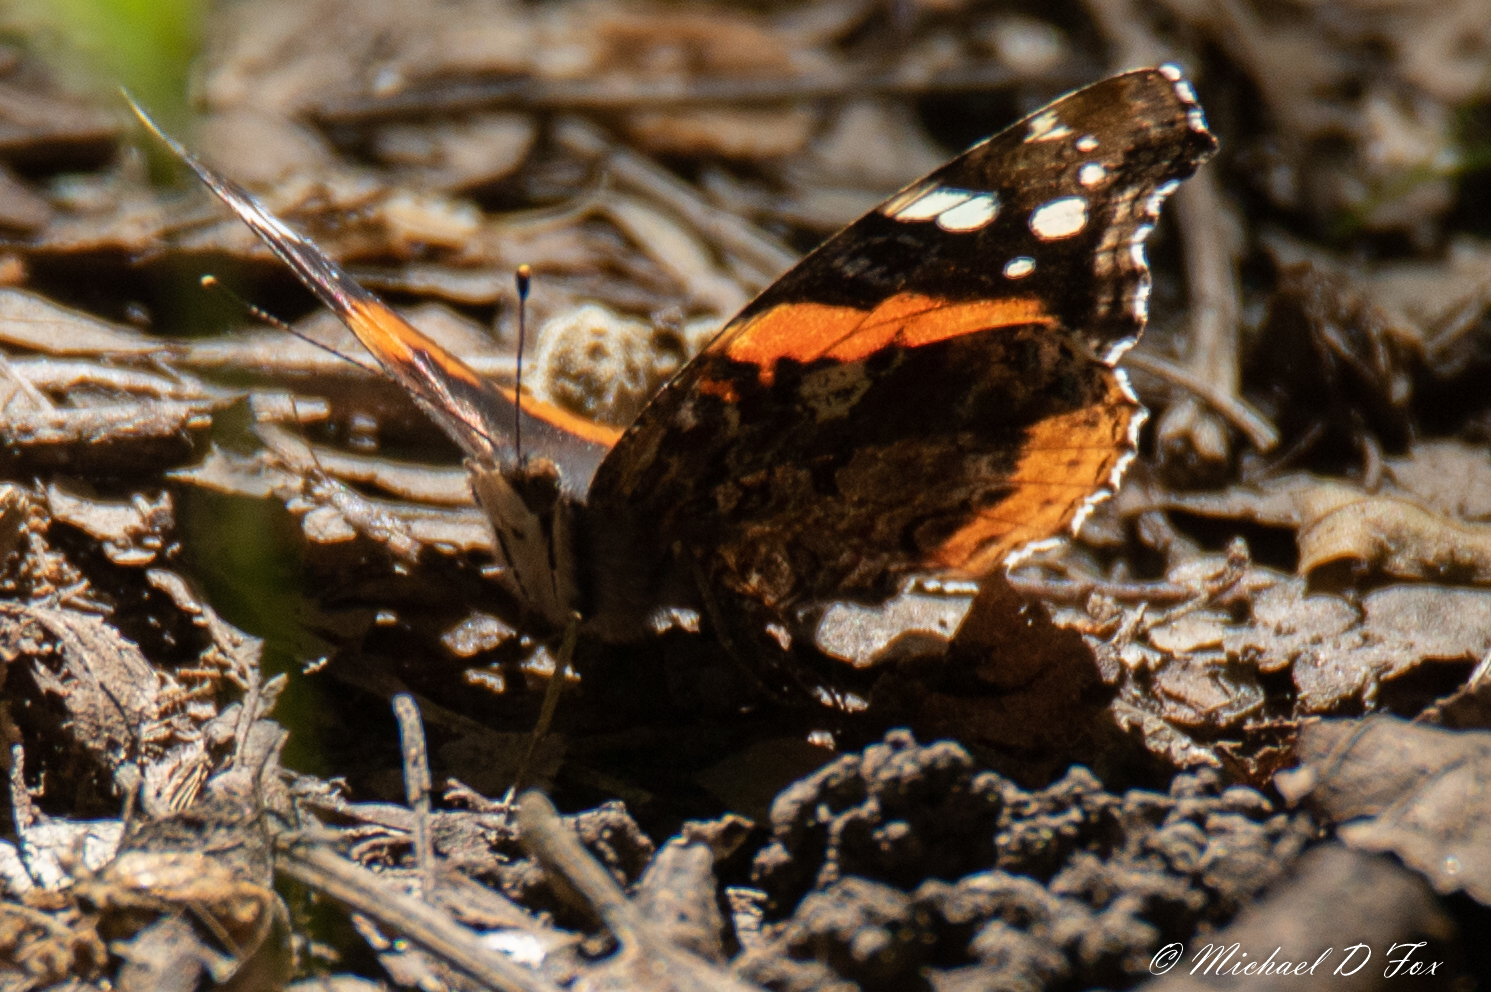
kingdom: Animalia
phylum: Arthropoda
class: Insecta
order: Lepidoptera
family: Nymphalidae
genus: Vanessa
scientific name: Vanessa atalanta
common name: Red admiral
